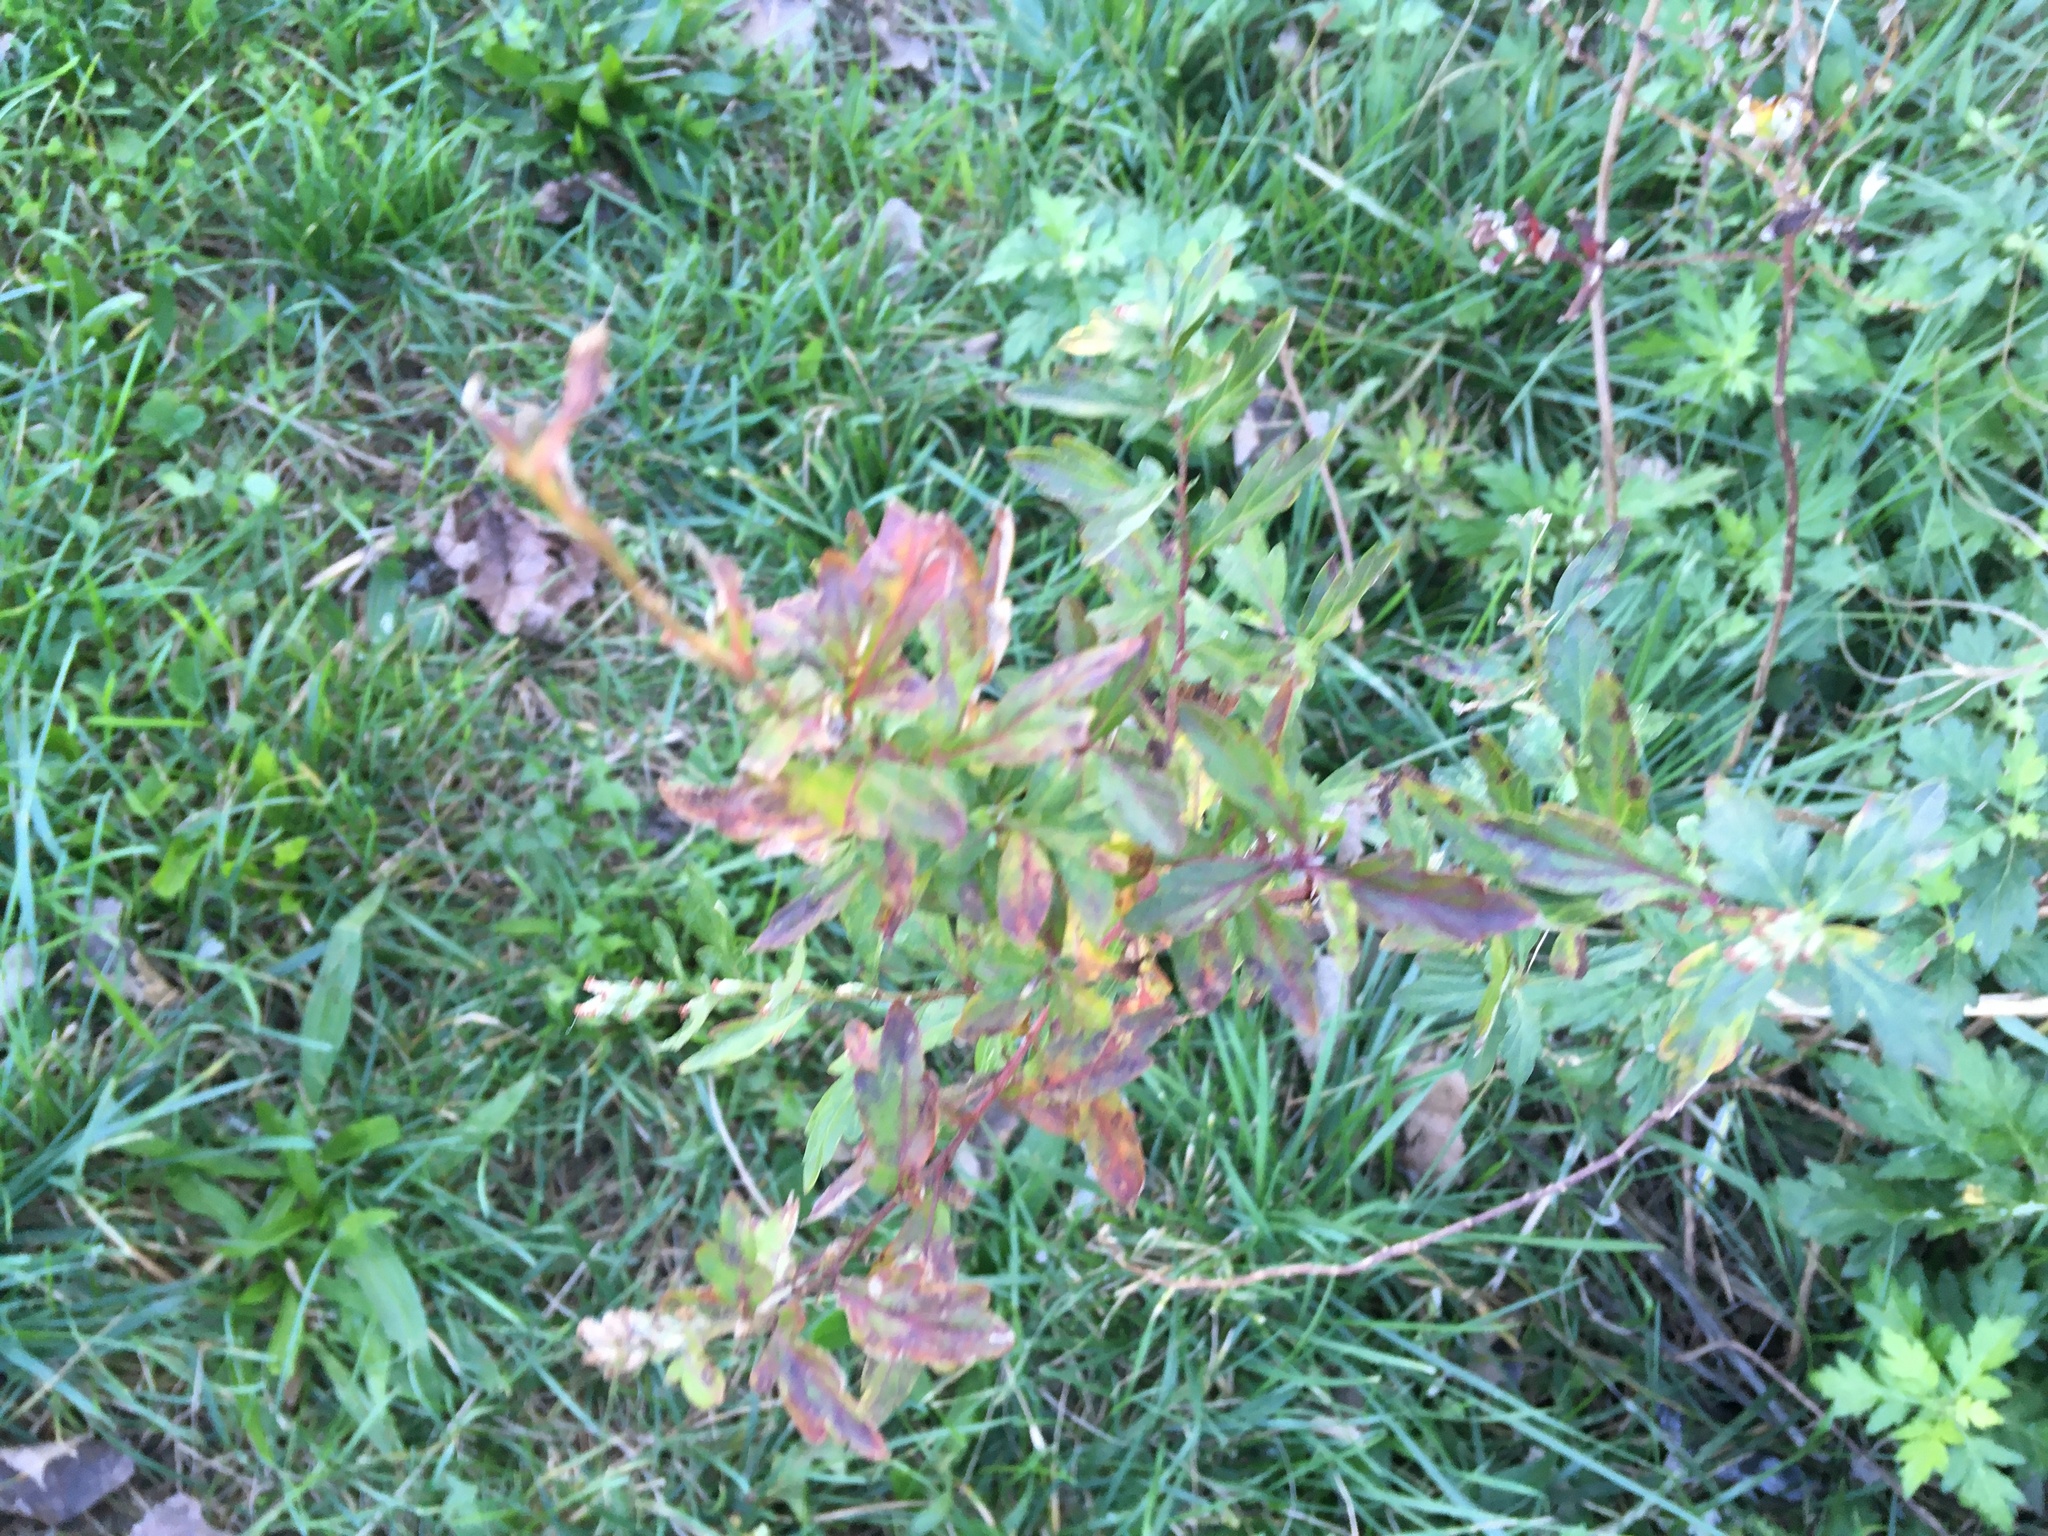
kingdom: Plantae
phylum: Tracheophyta
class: Magnoliopsida
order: Asterales
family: Asteraceae
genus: Artemisia
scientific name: Artemisia vulgaris
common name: Mugwort
